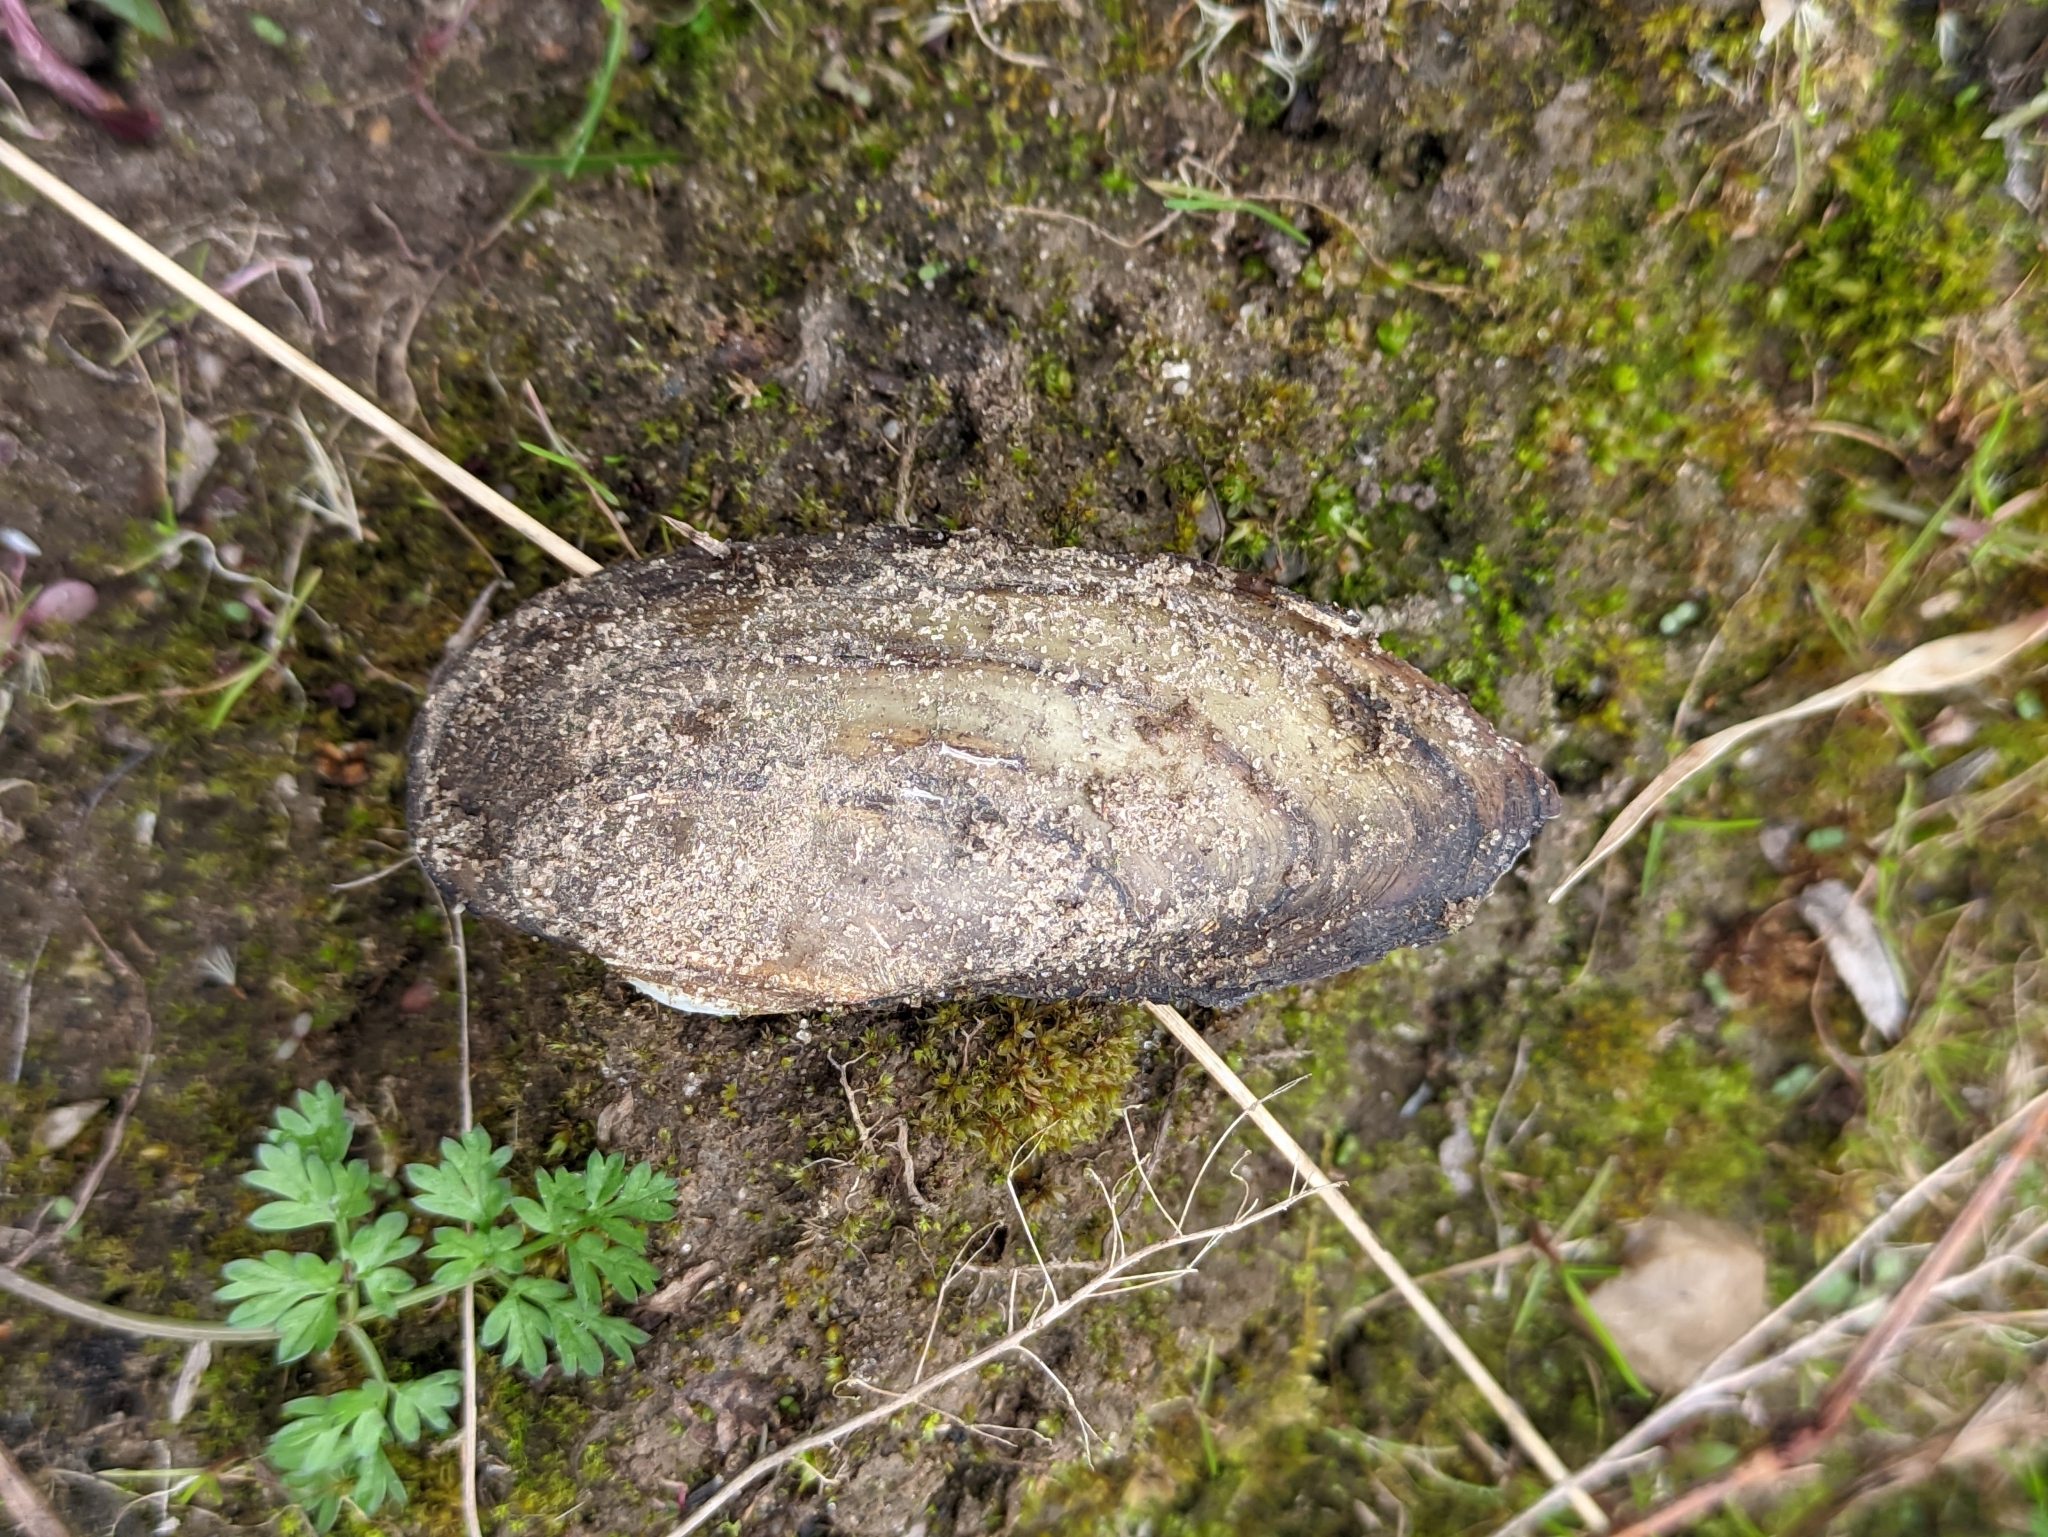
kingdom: Animalia
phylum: Mollusca
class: Bivalvia
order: Unionida
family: Unionidae
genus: Unio
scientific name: Unio pictorum
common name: Painter's mussel
